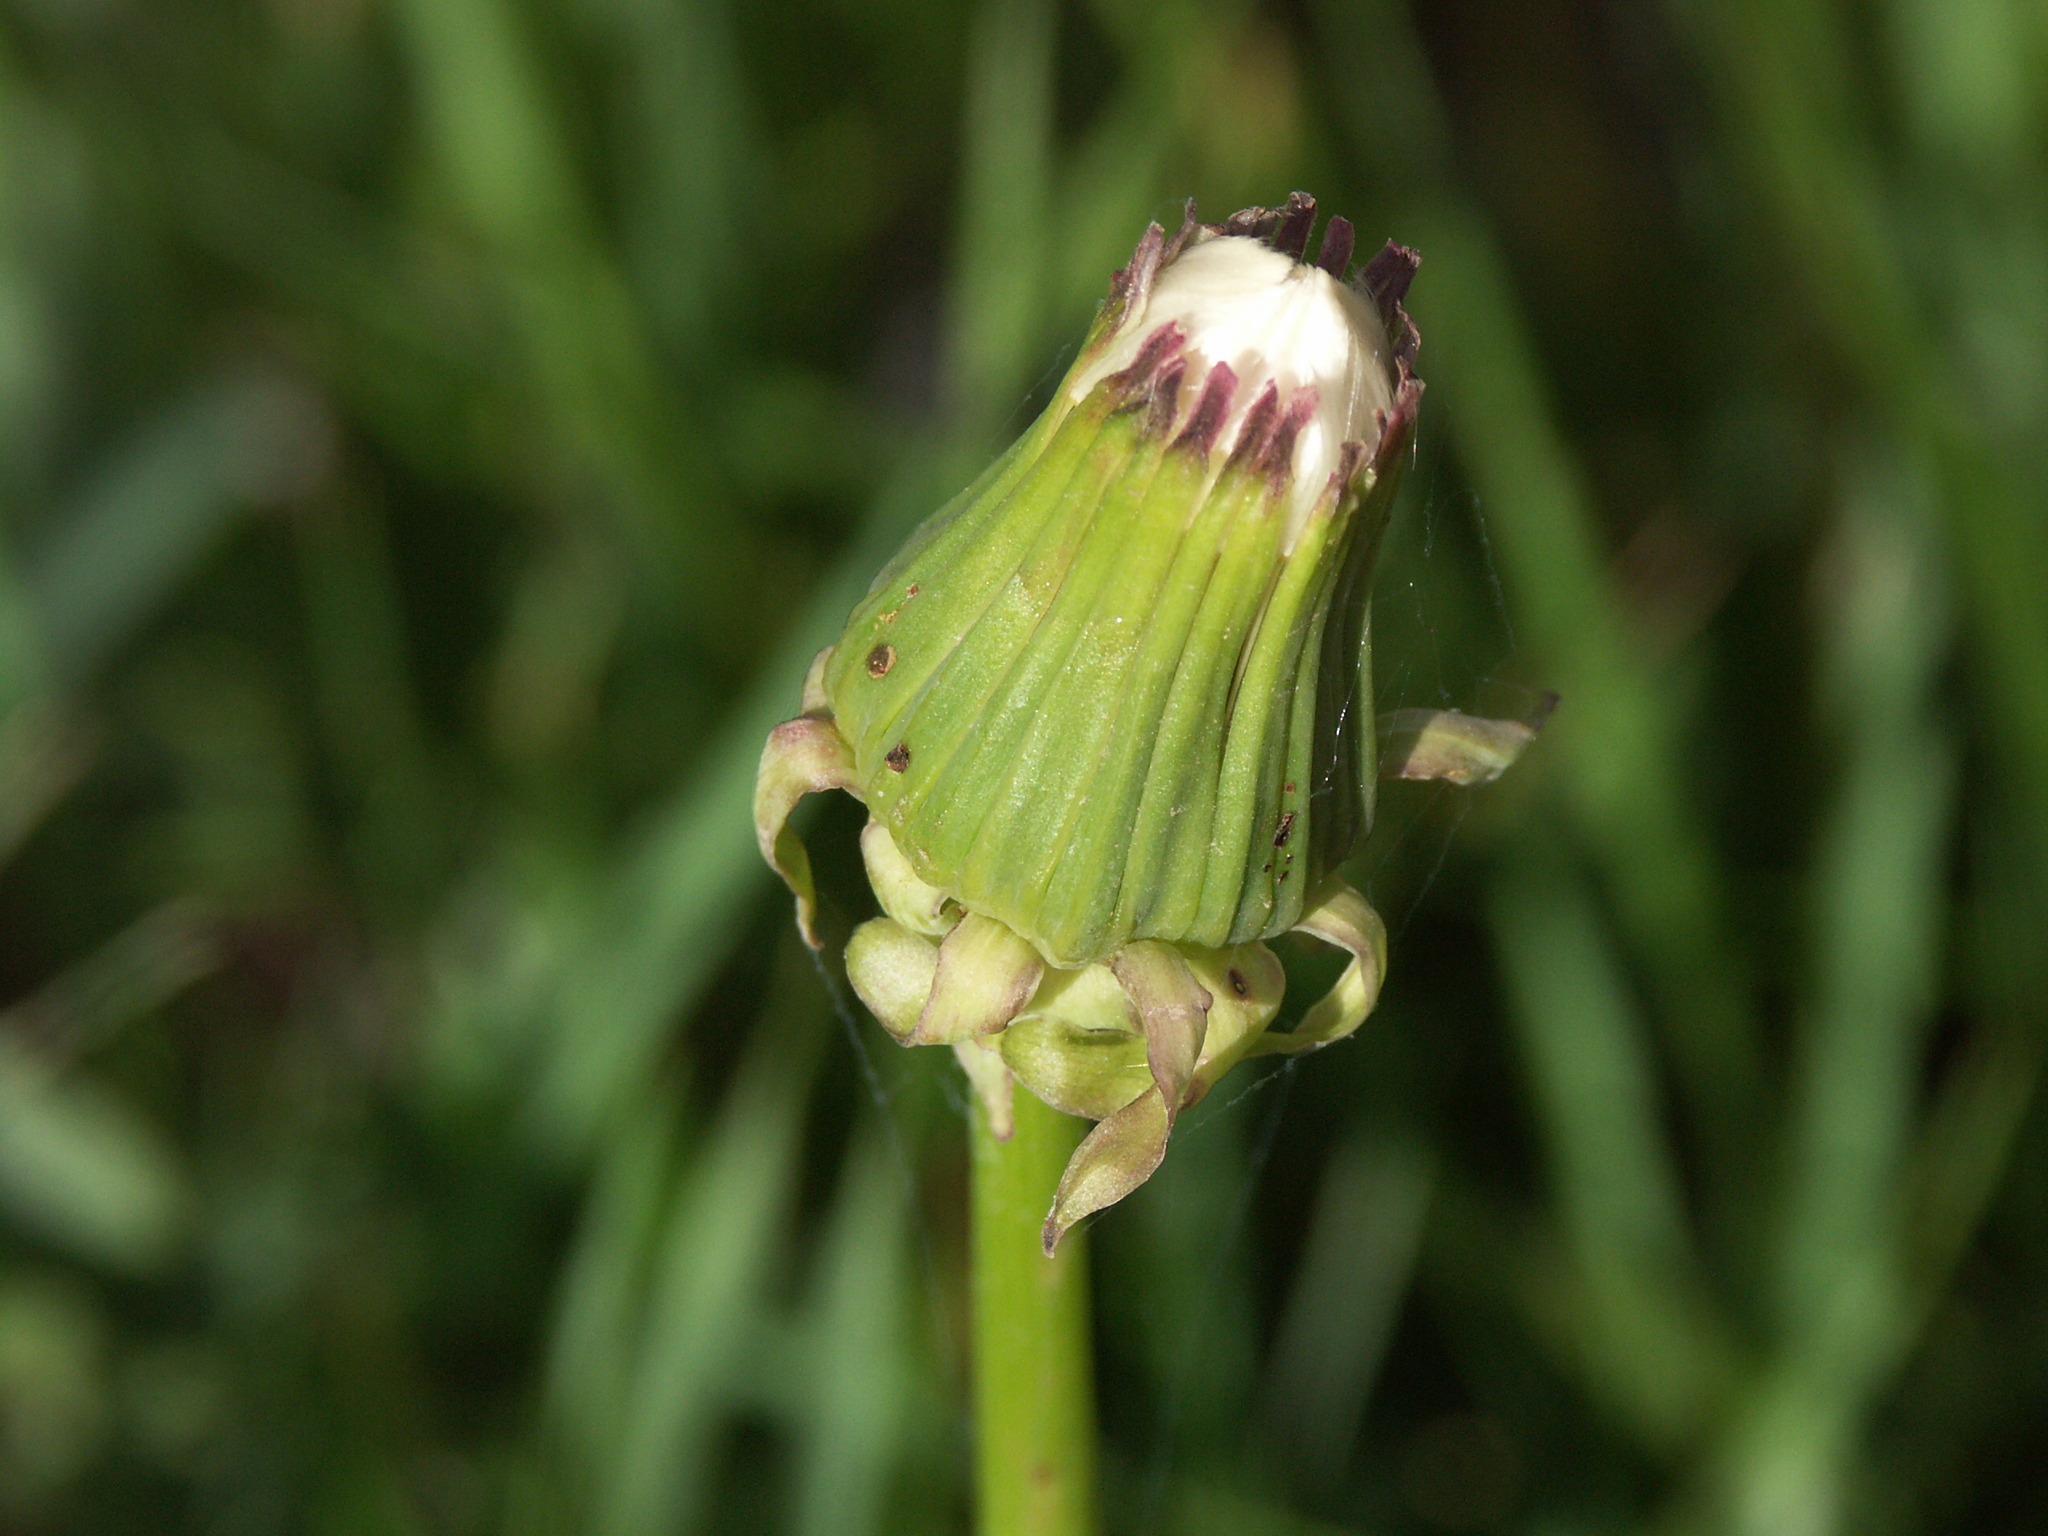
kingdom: Plantae
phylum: Tracheophyta
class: Magnoliopsida
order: Asterales
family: Asteraceae
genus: Taraxacum
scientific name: Taraxacum officinale
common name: Common dandelion
